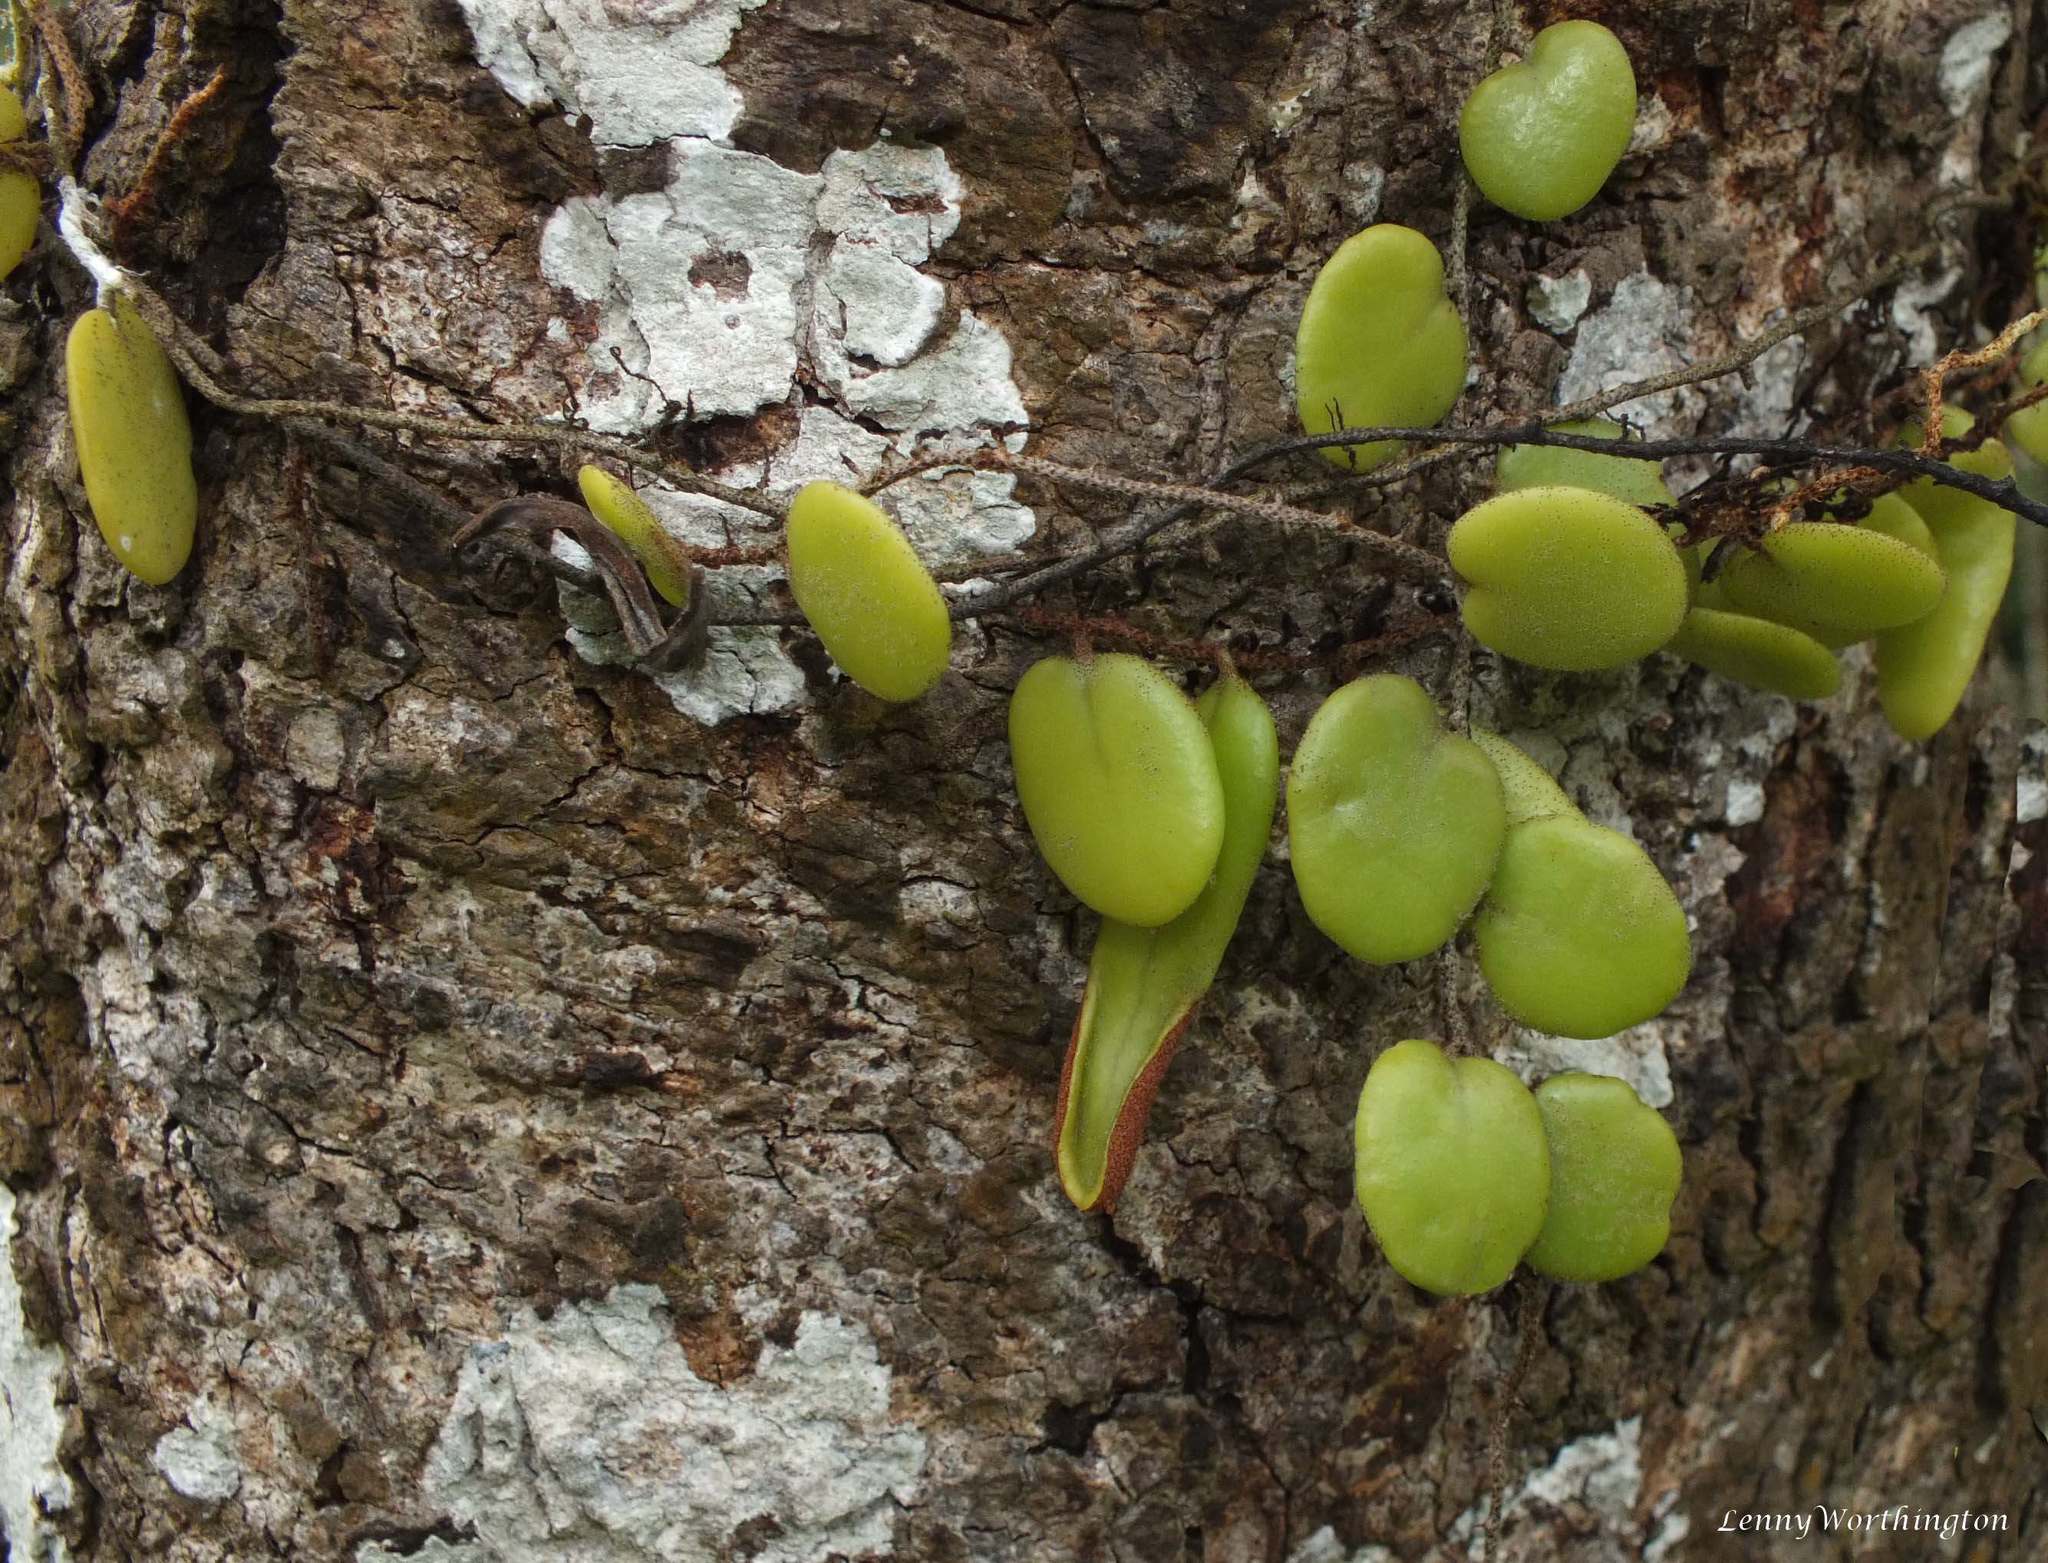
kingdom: Plantae
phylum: Tracheophyta
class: Polypodiopsida
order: Polypodiales
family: Polypodiaceae
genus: Pyrrosia
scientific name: Pyrrosia piloselloides
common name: Epiphytic creeping fern
